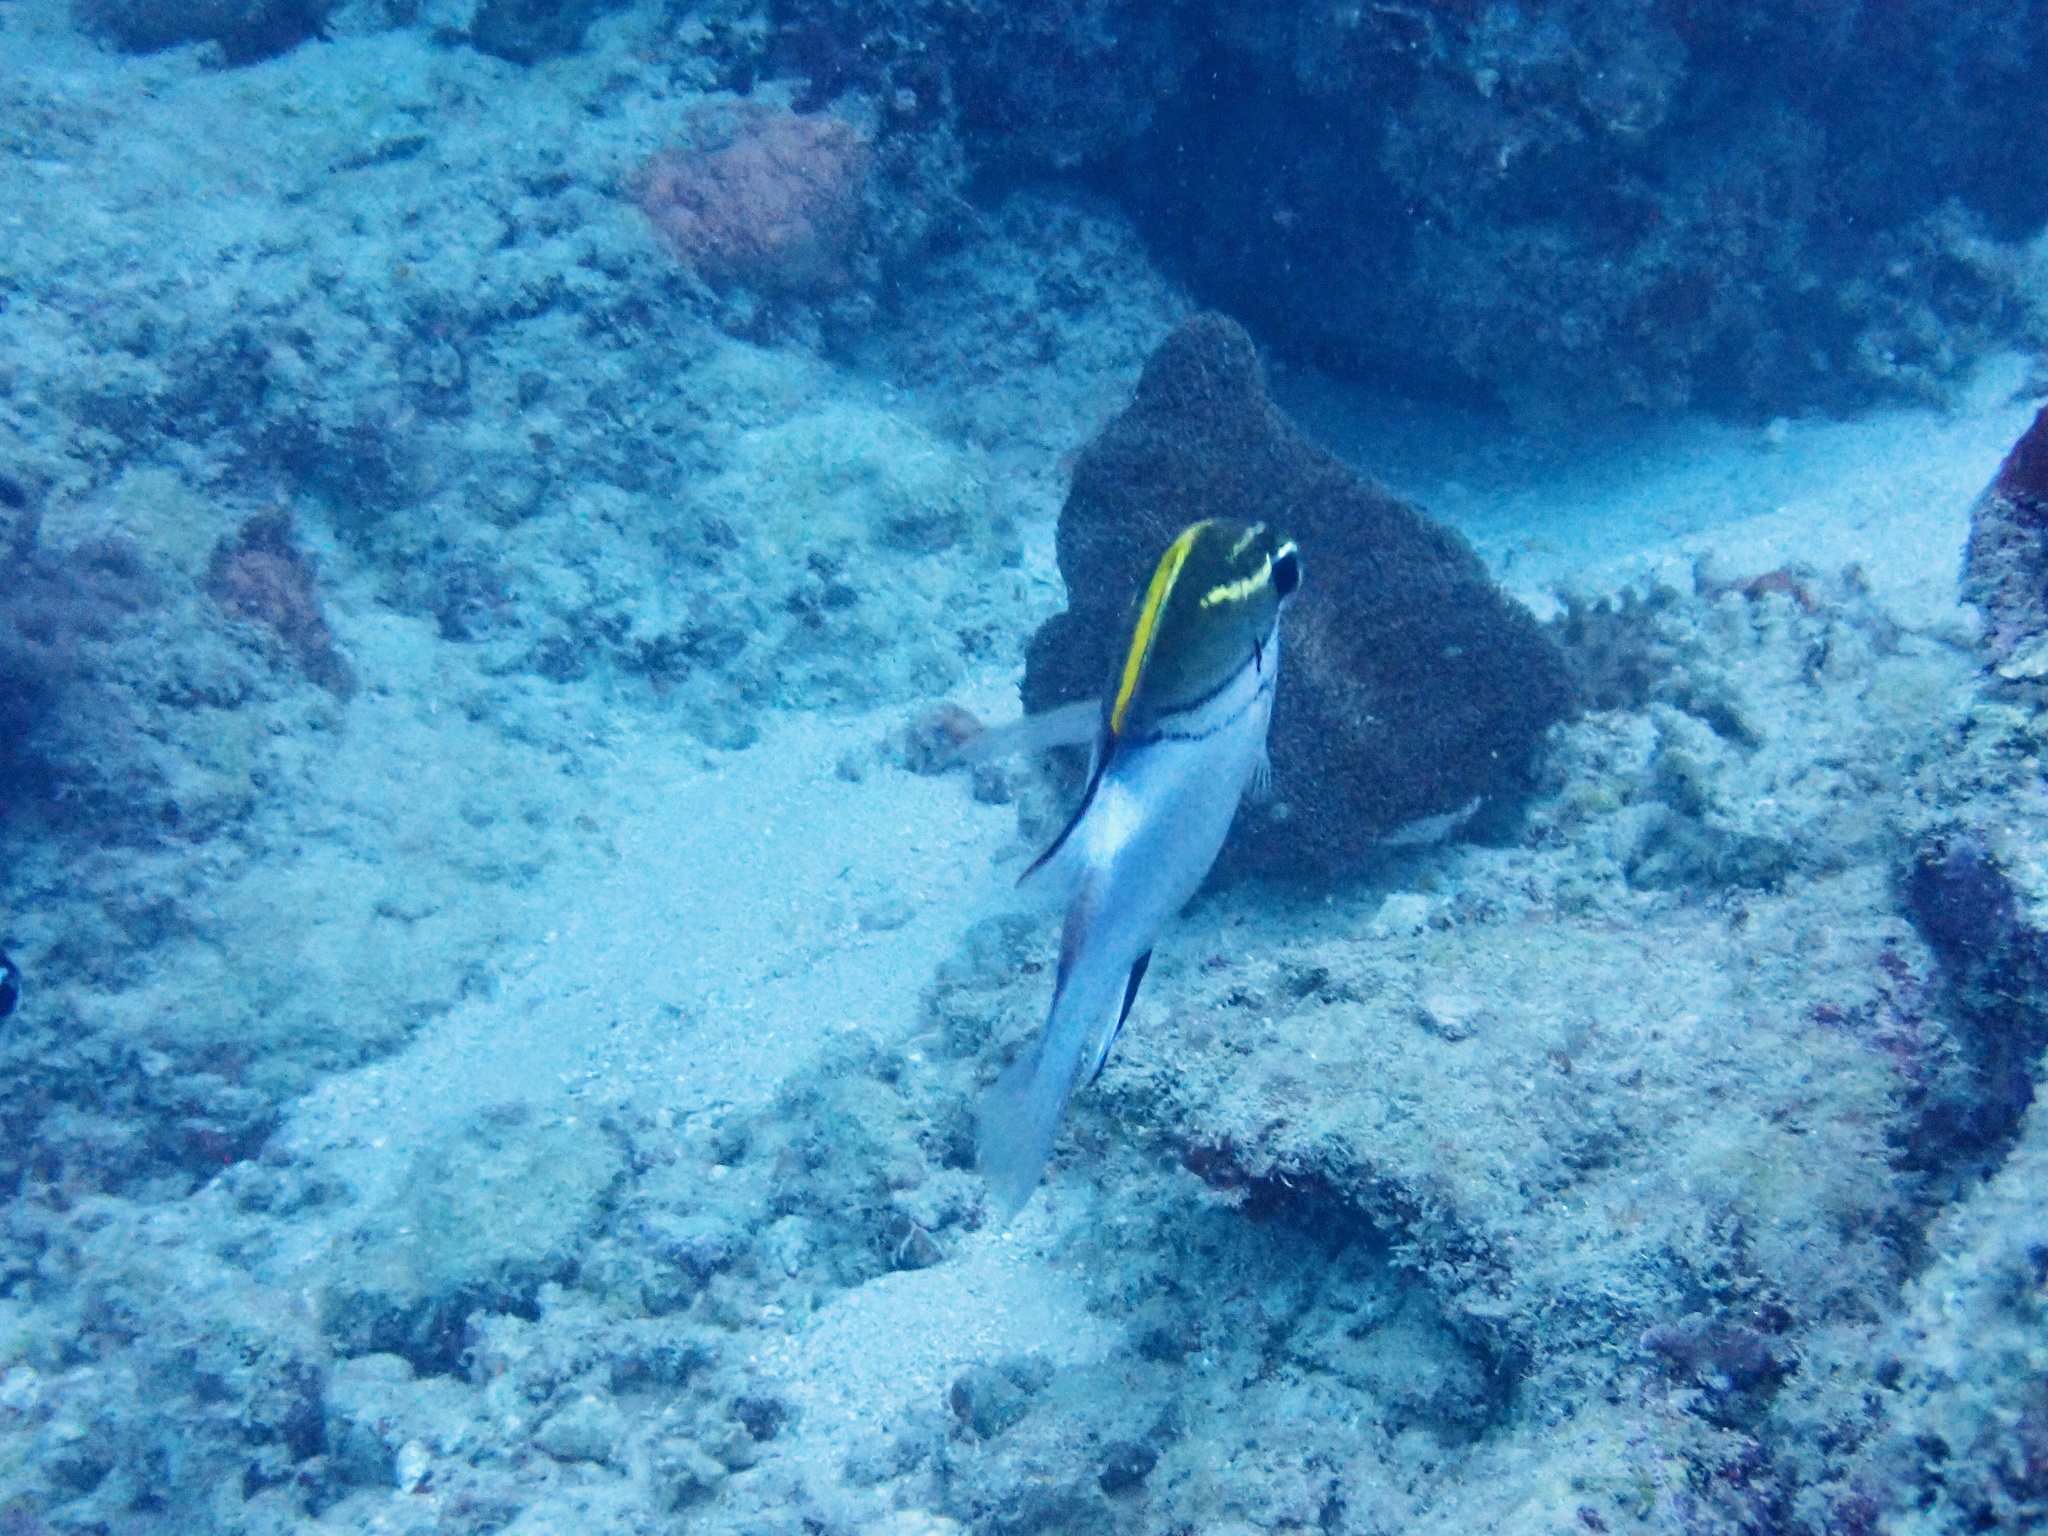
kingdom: Animalia
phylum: Chordata
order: Perciformes
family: Nemipteridae
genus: Scolopsis
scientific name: Scolopsis bilineata
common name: Two-lined monocle bream
